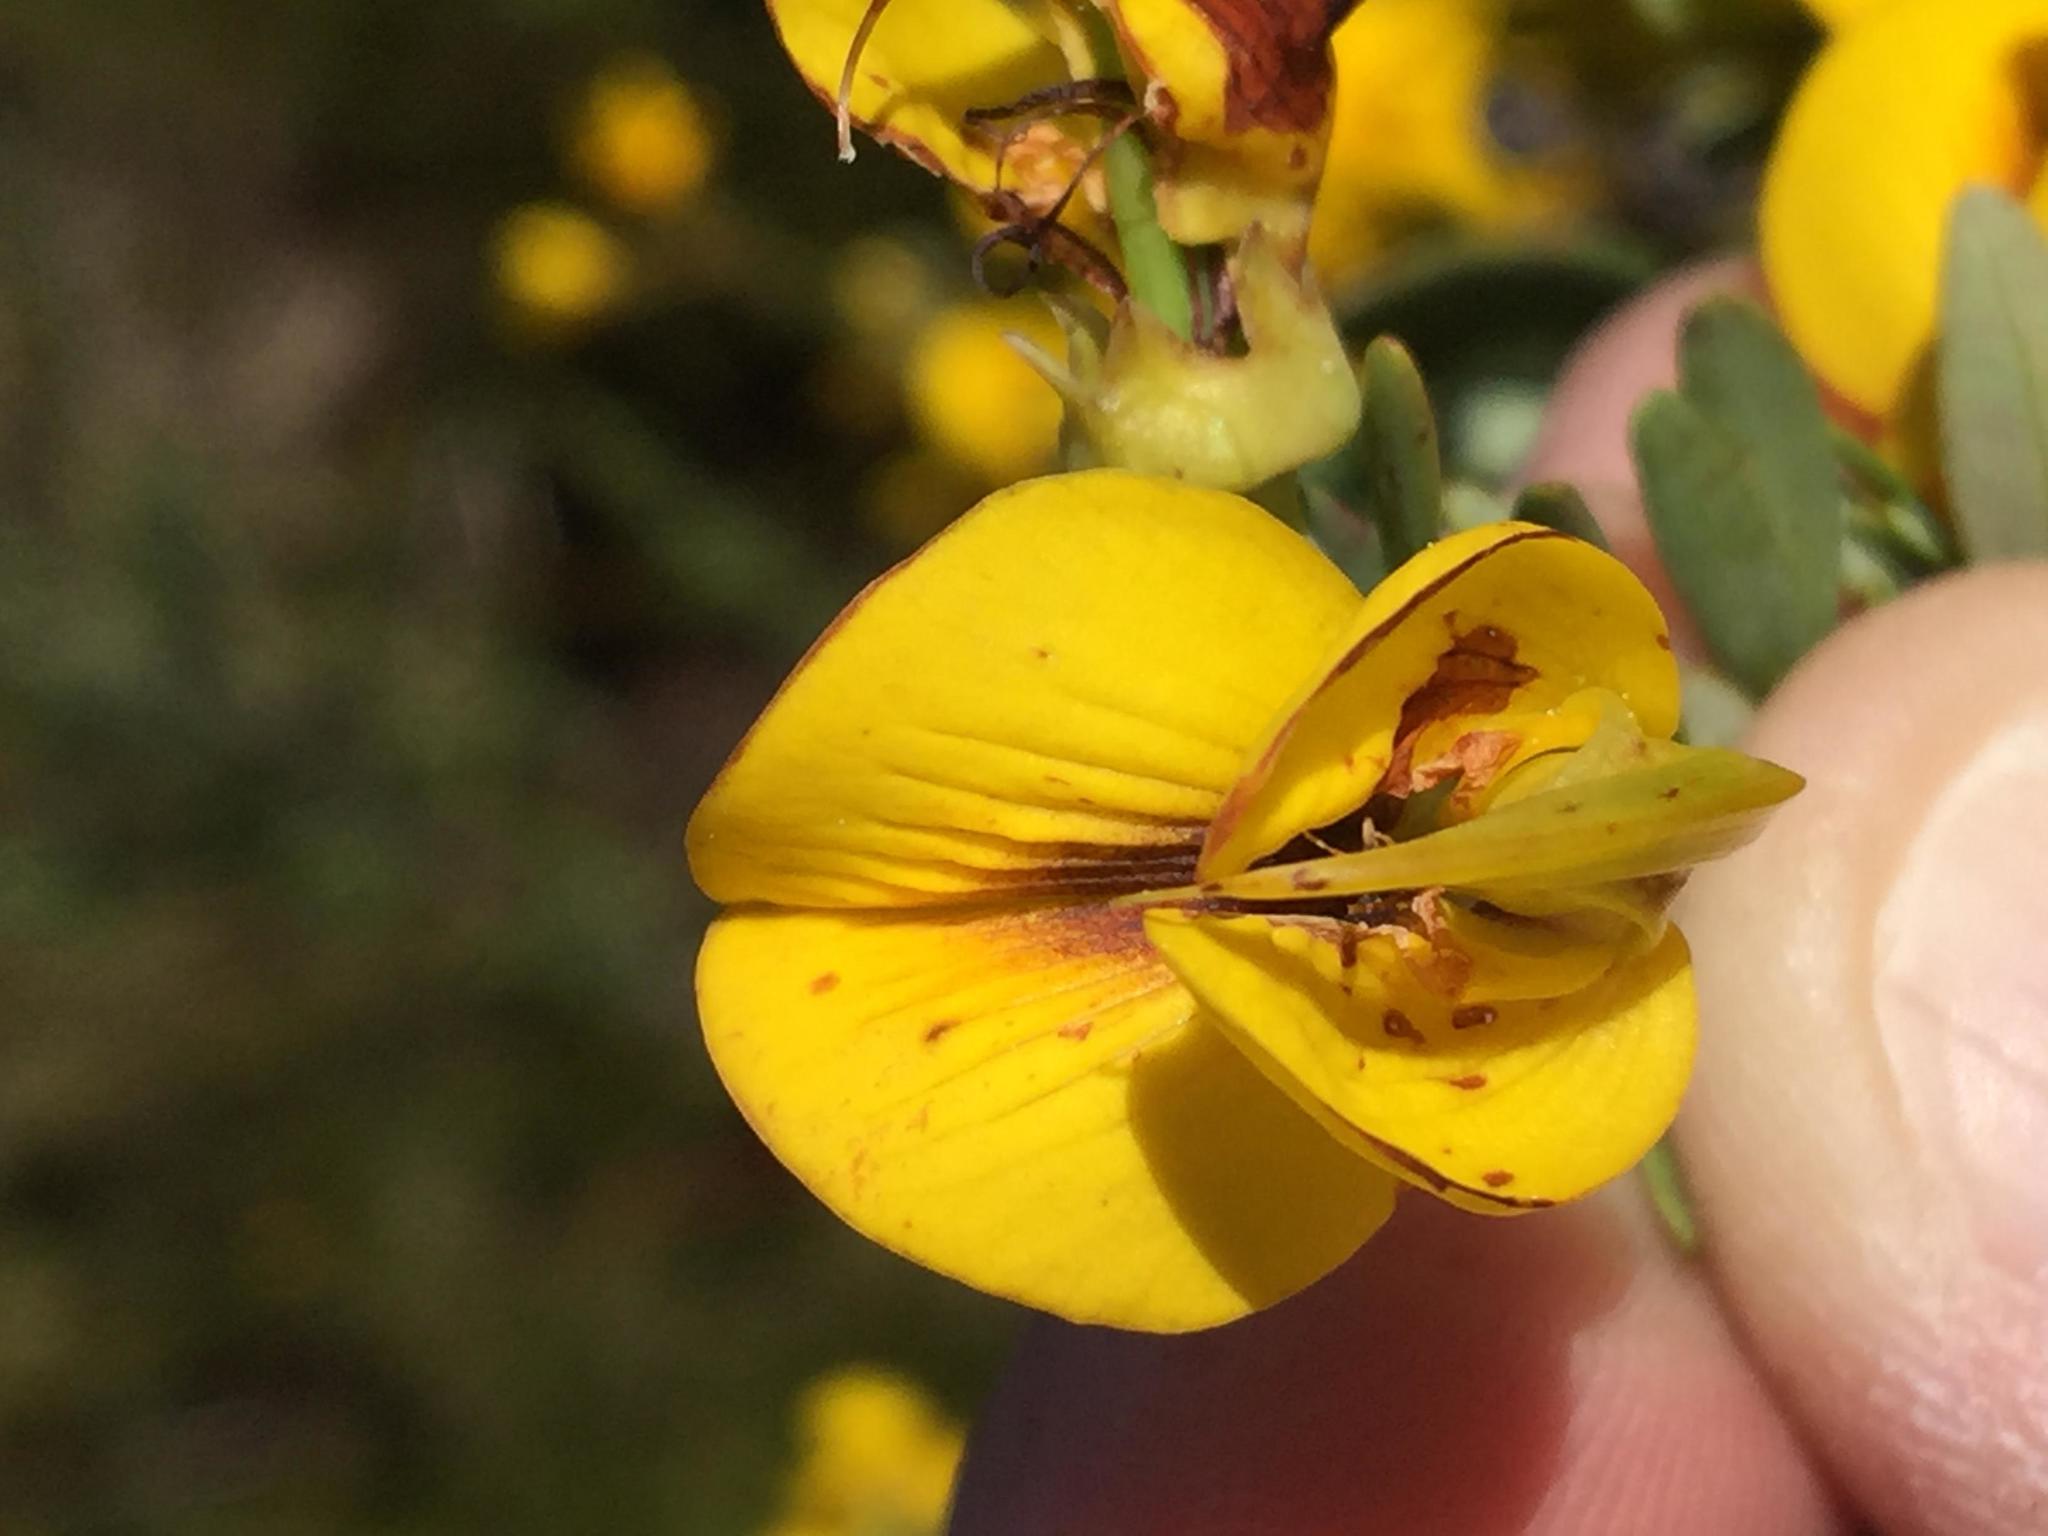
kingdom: Plantae
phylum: Tracheophyta
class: Magnoliopsida
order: Fabales
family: Fabaceae
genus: Cyclopia
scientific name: Cyclopia subternata
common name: Honeybush tea
